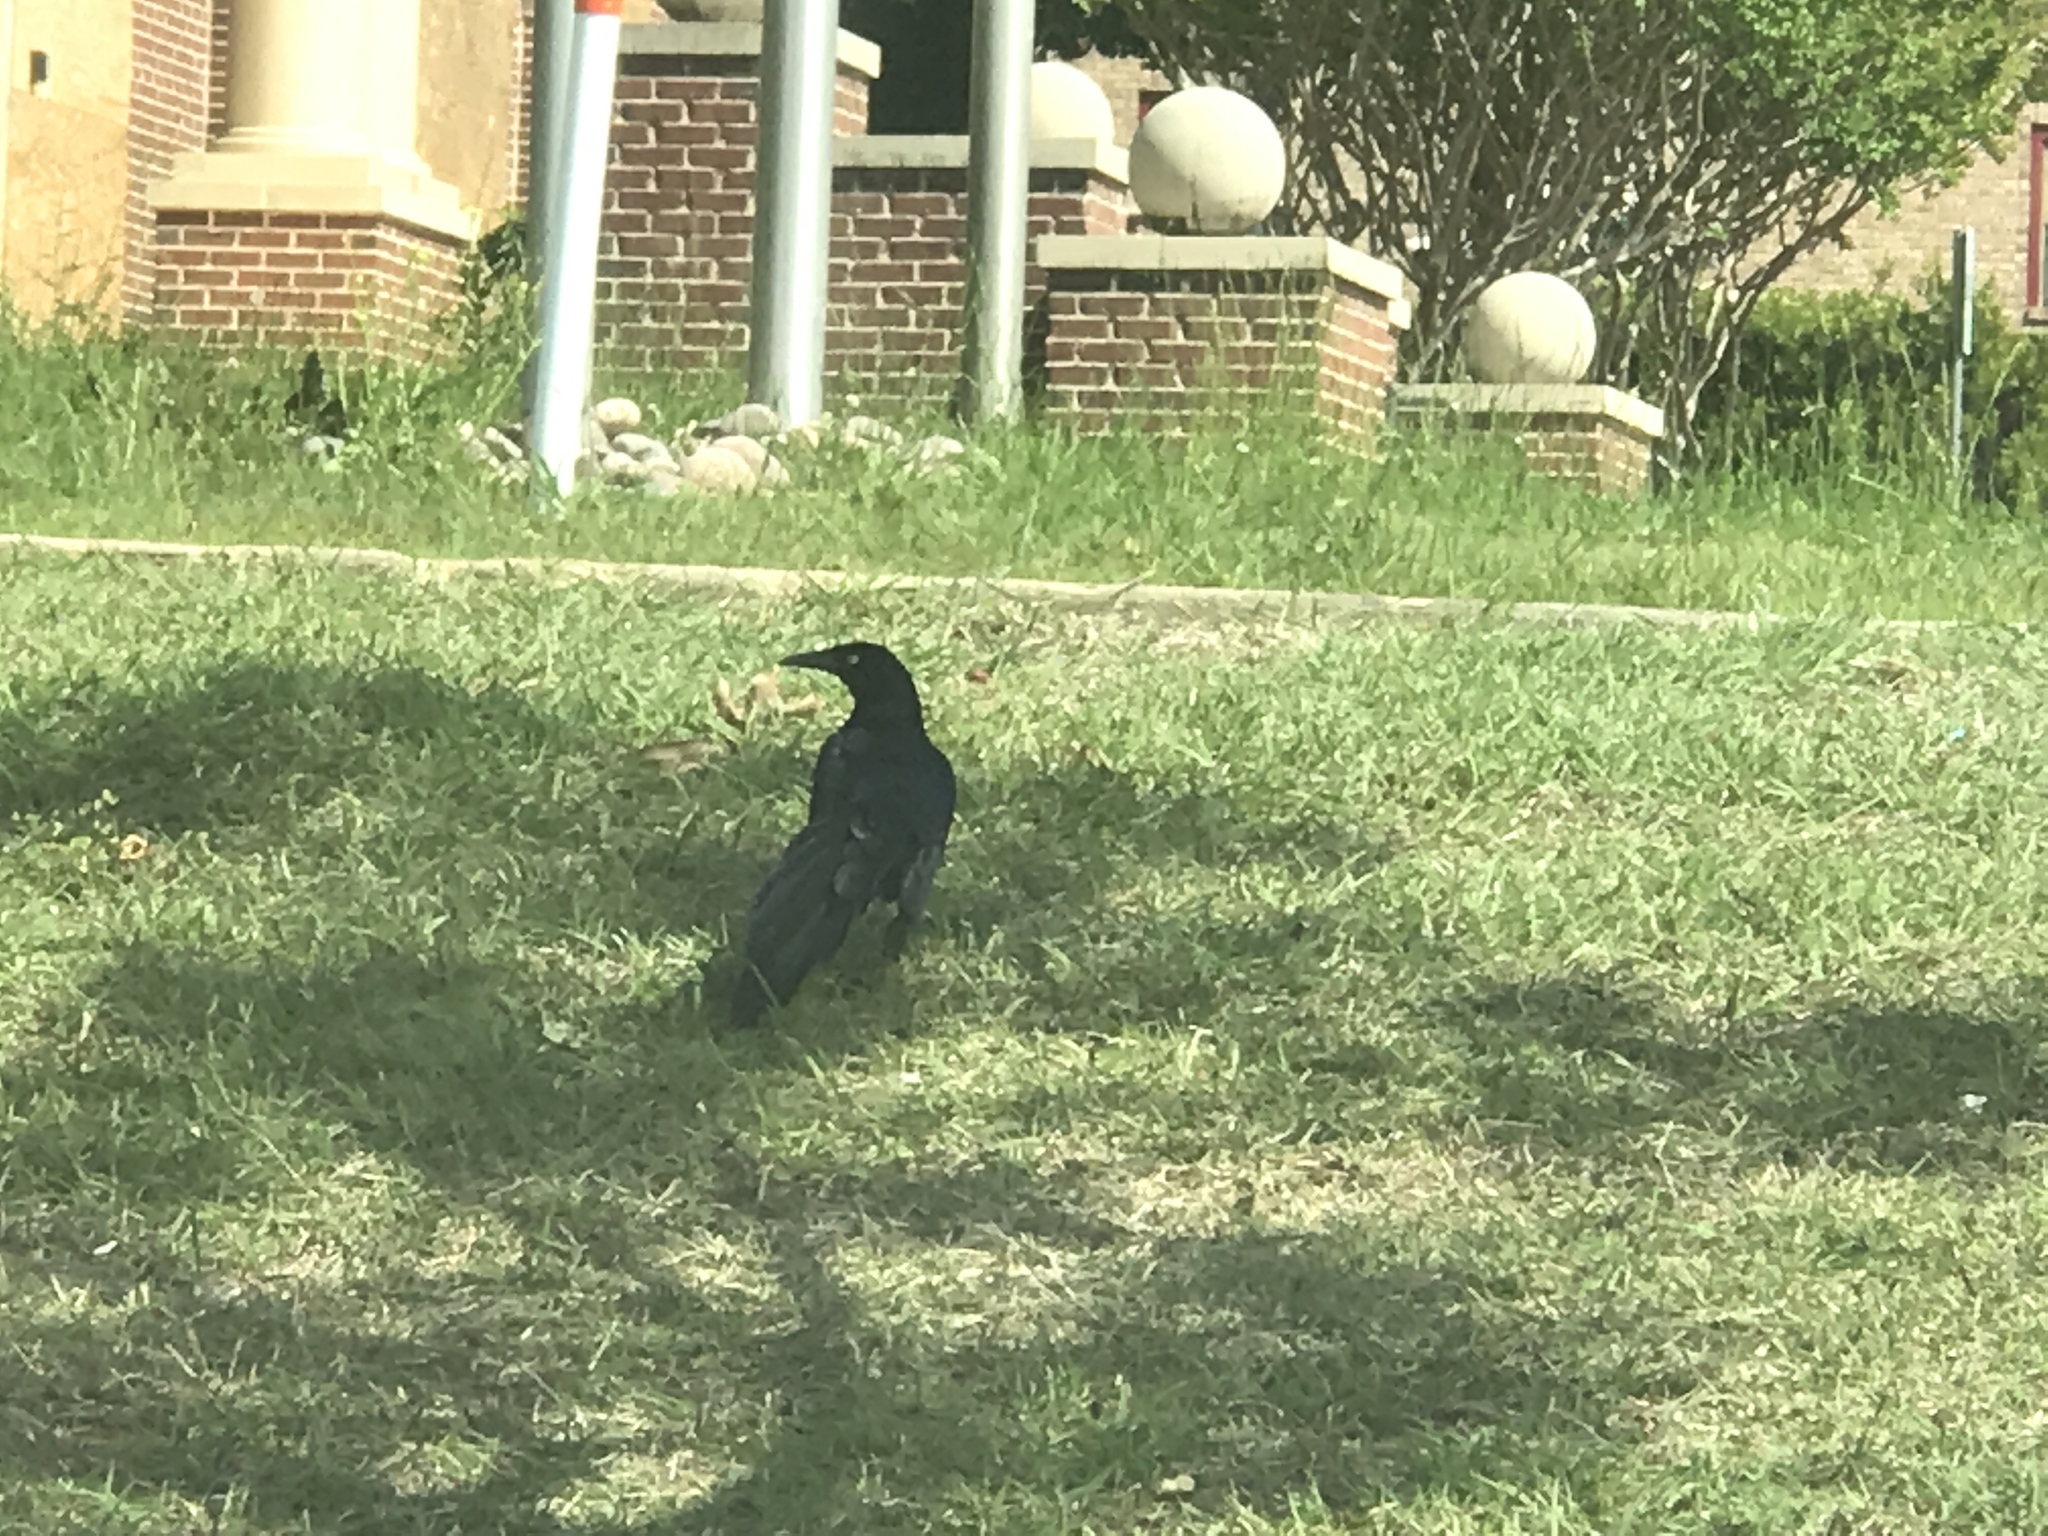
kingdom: Animalia
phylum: Chordata
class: Aves
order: Passeriformes
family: Icteridae
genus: Quiscalus
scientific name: Quiscalus mexicanus
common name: Great-tailed grackle
